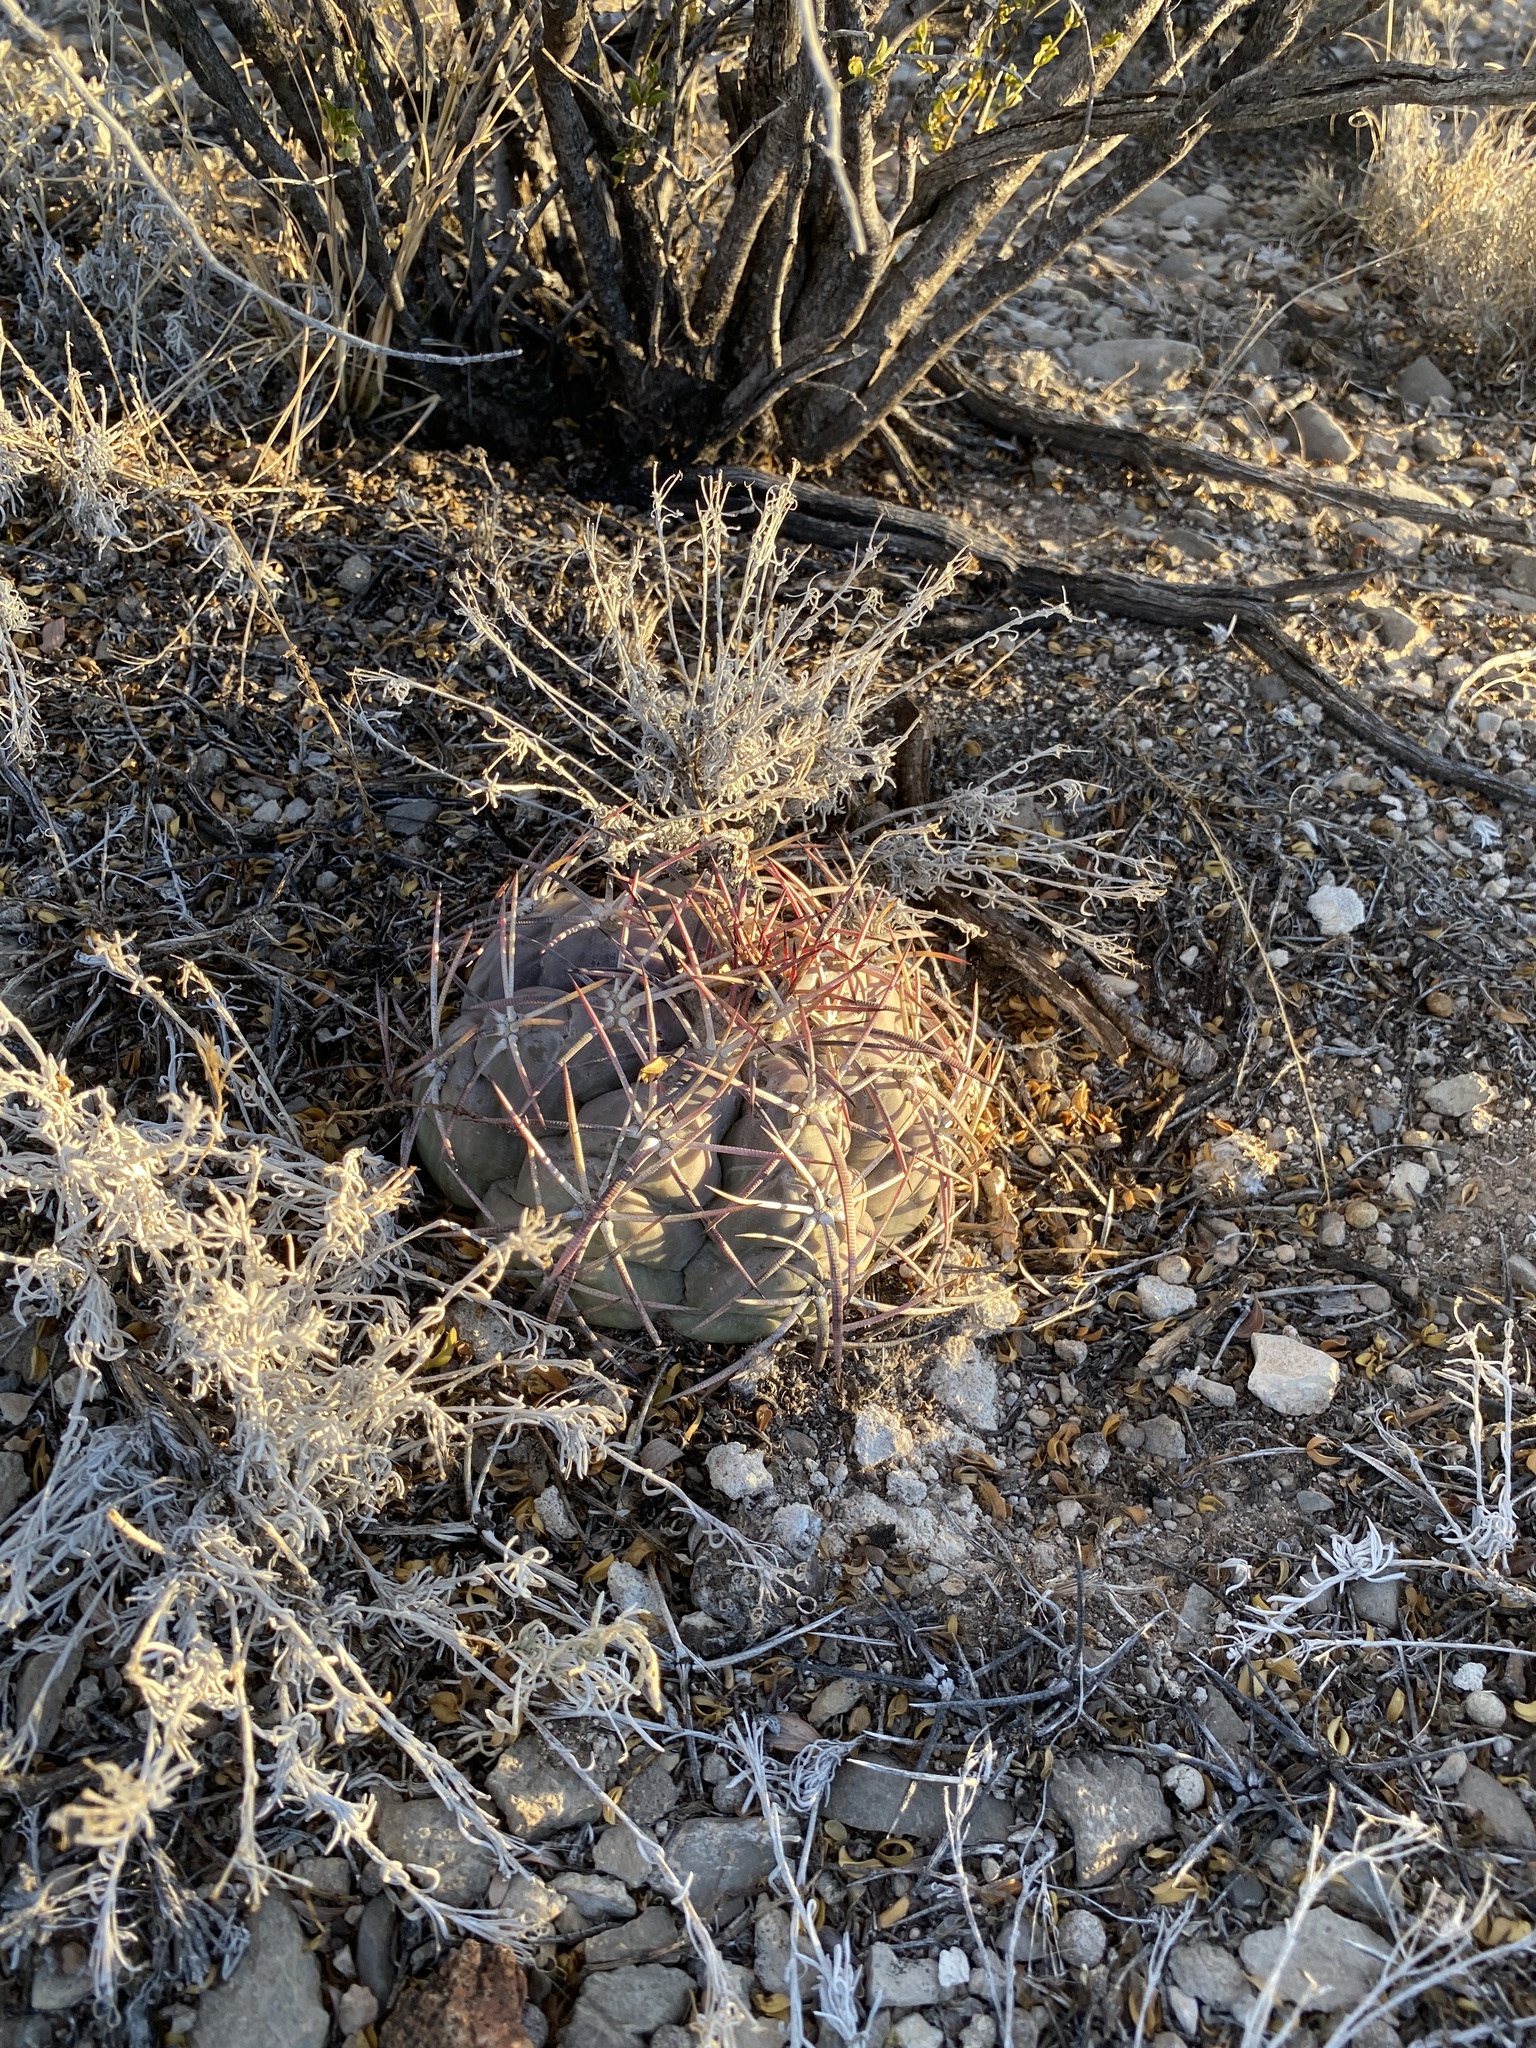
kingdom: Plantae
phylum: Tracheophyta
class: Magnoliopsida
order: Caryophyllales
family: Cactaceae
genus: Echinocactus
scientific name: Echinocactus horizonthalonius
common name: Devilshead
